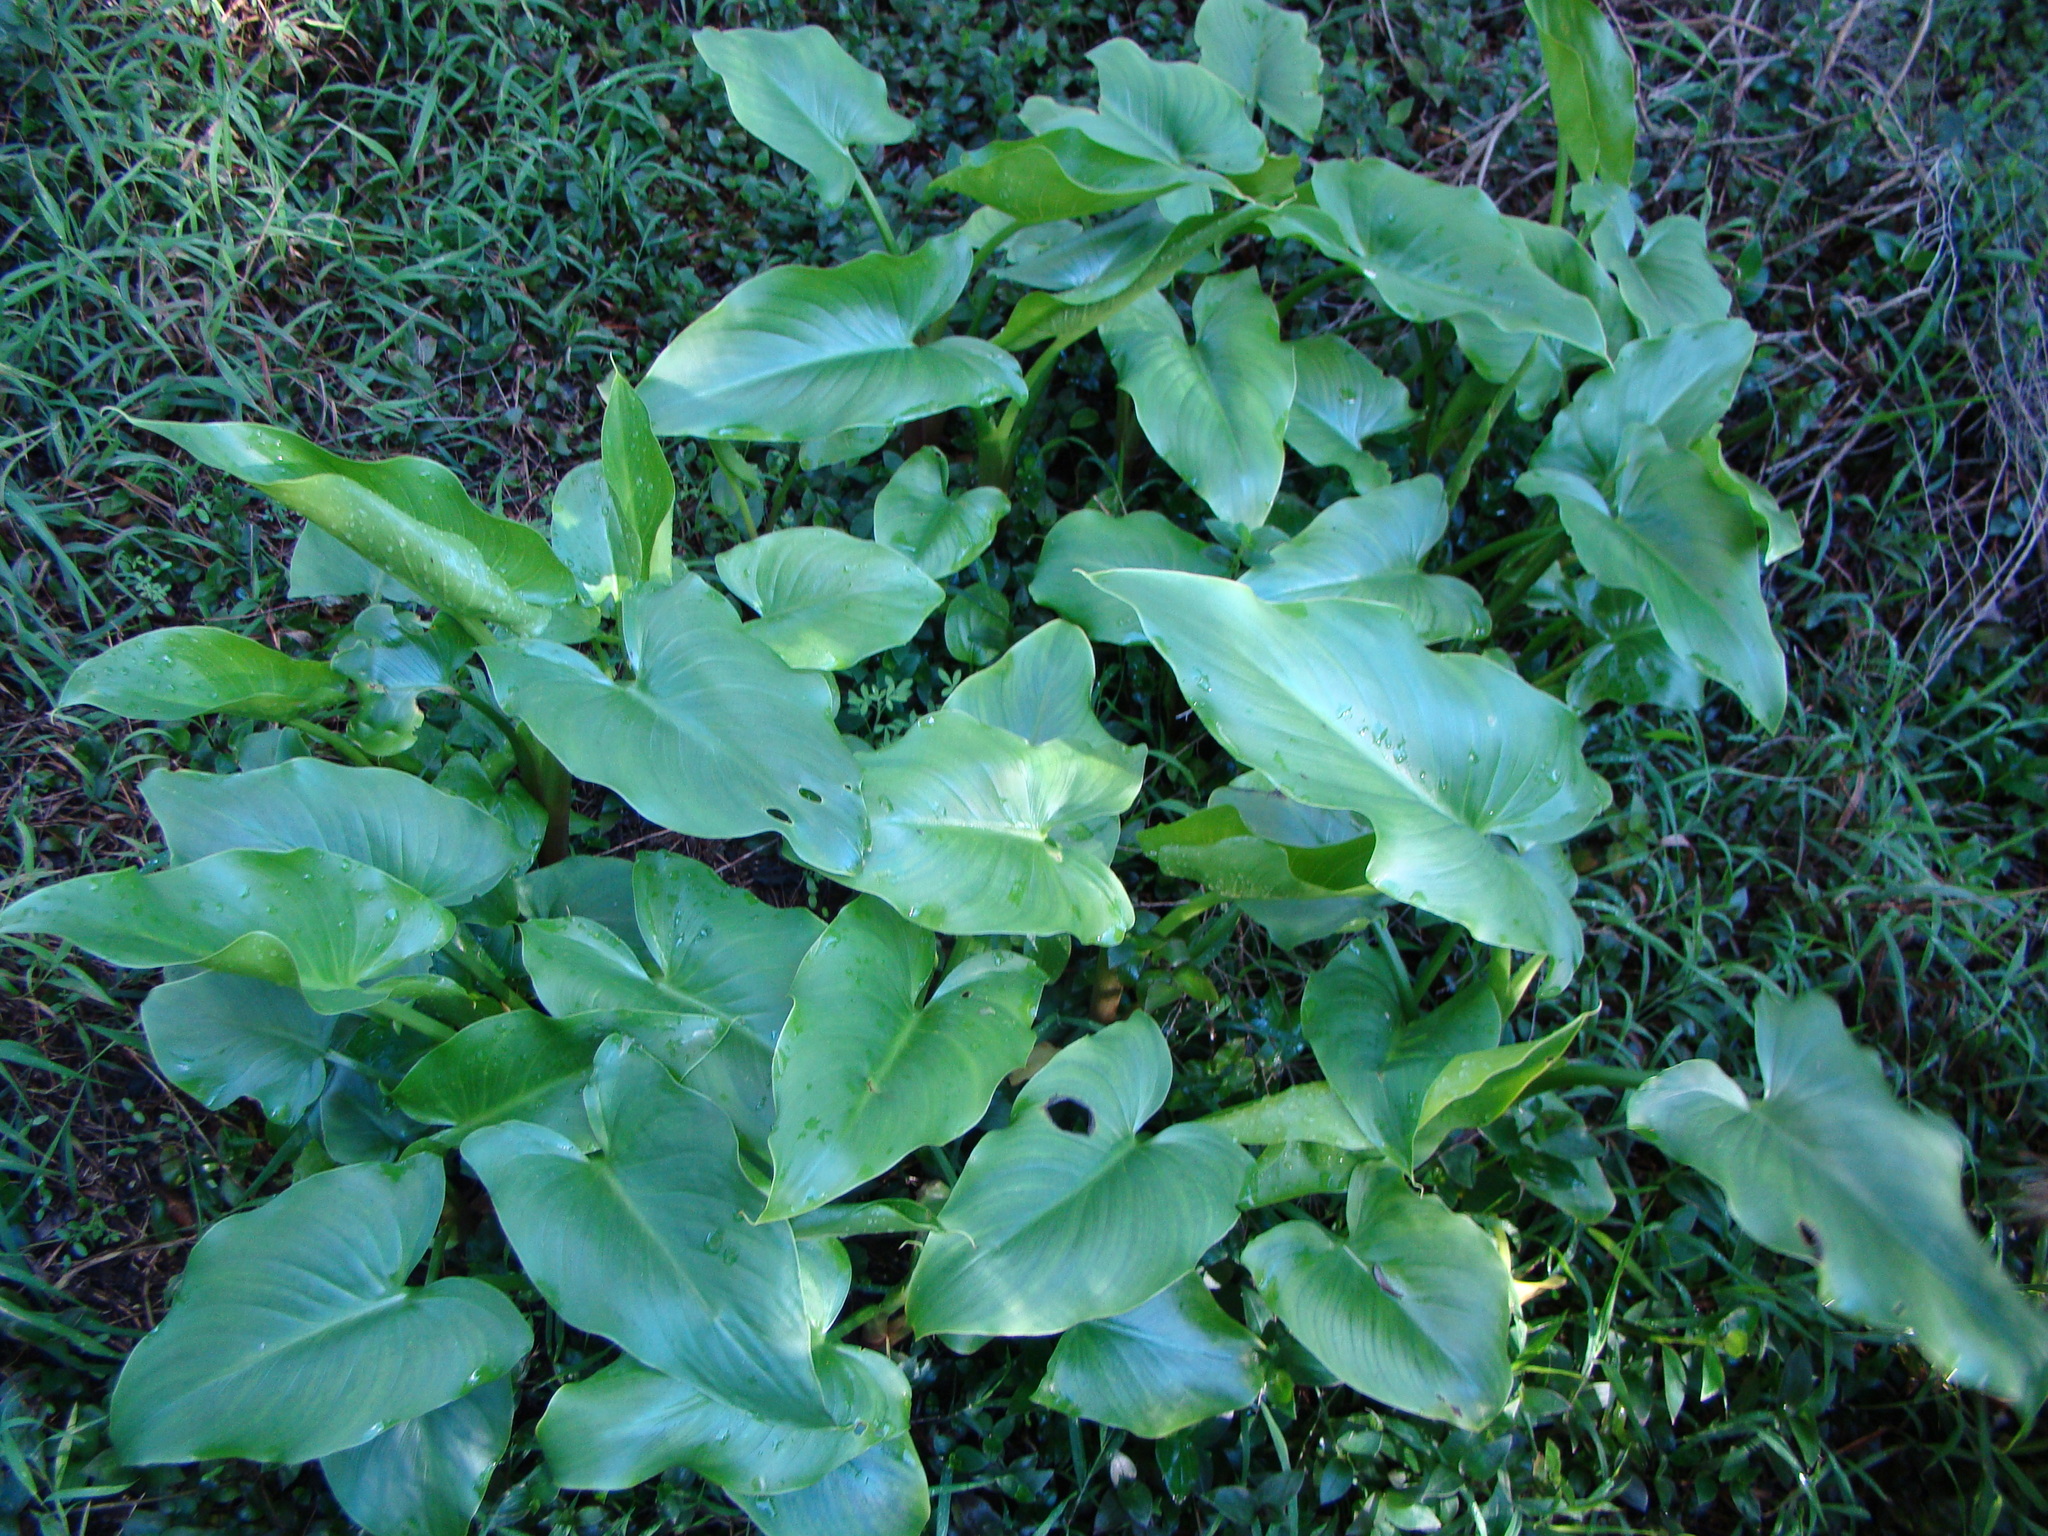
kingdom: Plantae
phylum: Tracheophyta
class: Liliopsida
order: Alismatales
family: Araceae
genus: Zantedeschia
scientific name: Zantedeschia aethiopica
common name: Altar-lily
